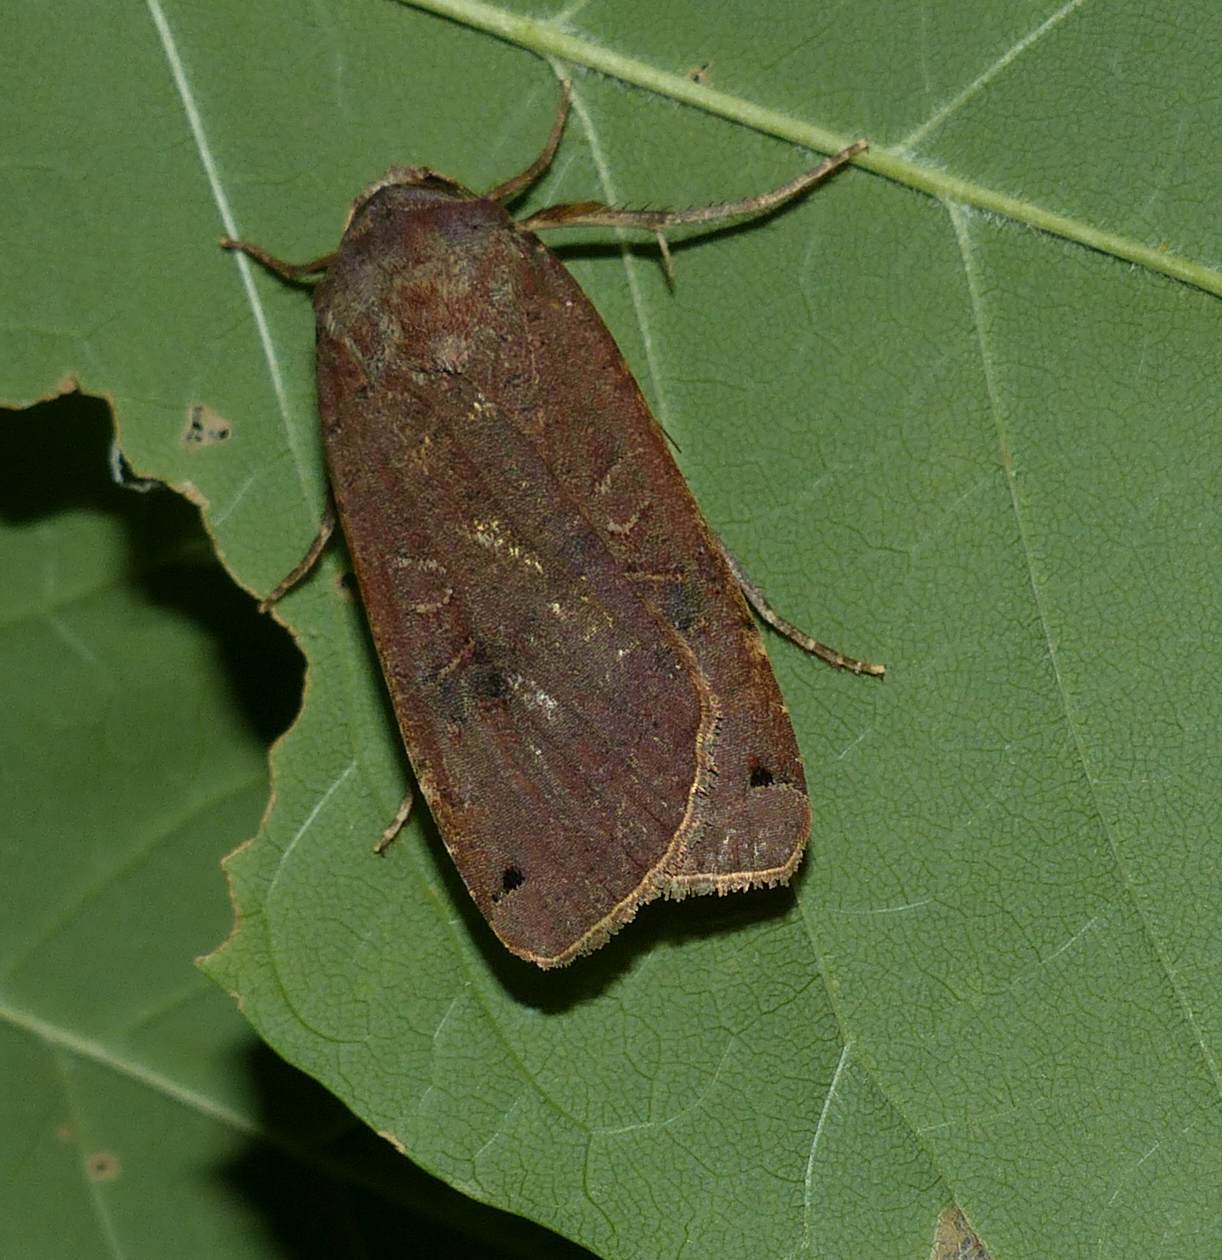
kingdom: Animalia
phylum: Arthropoda
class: Insecta
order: Lepidoptera
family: Noctuidae
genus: Noctua
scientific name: Noctua pronuba
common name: Large yellow underwing
